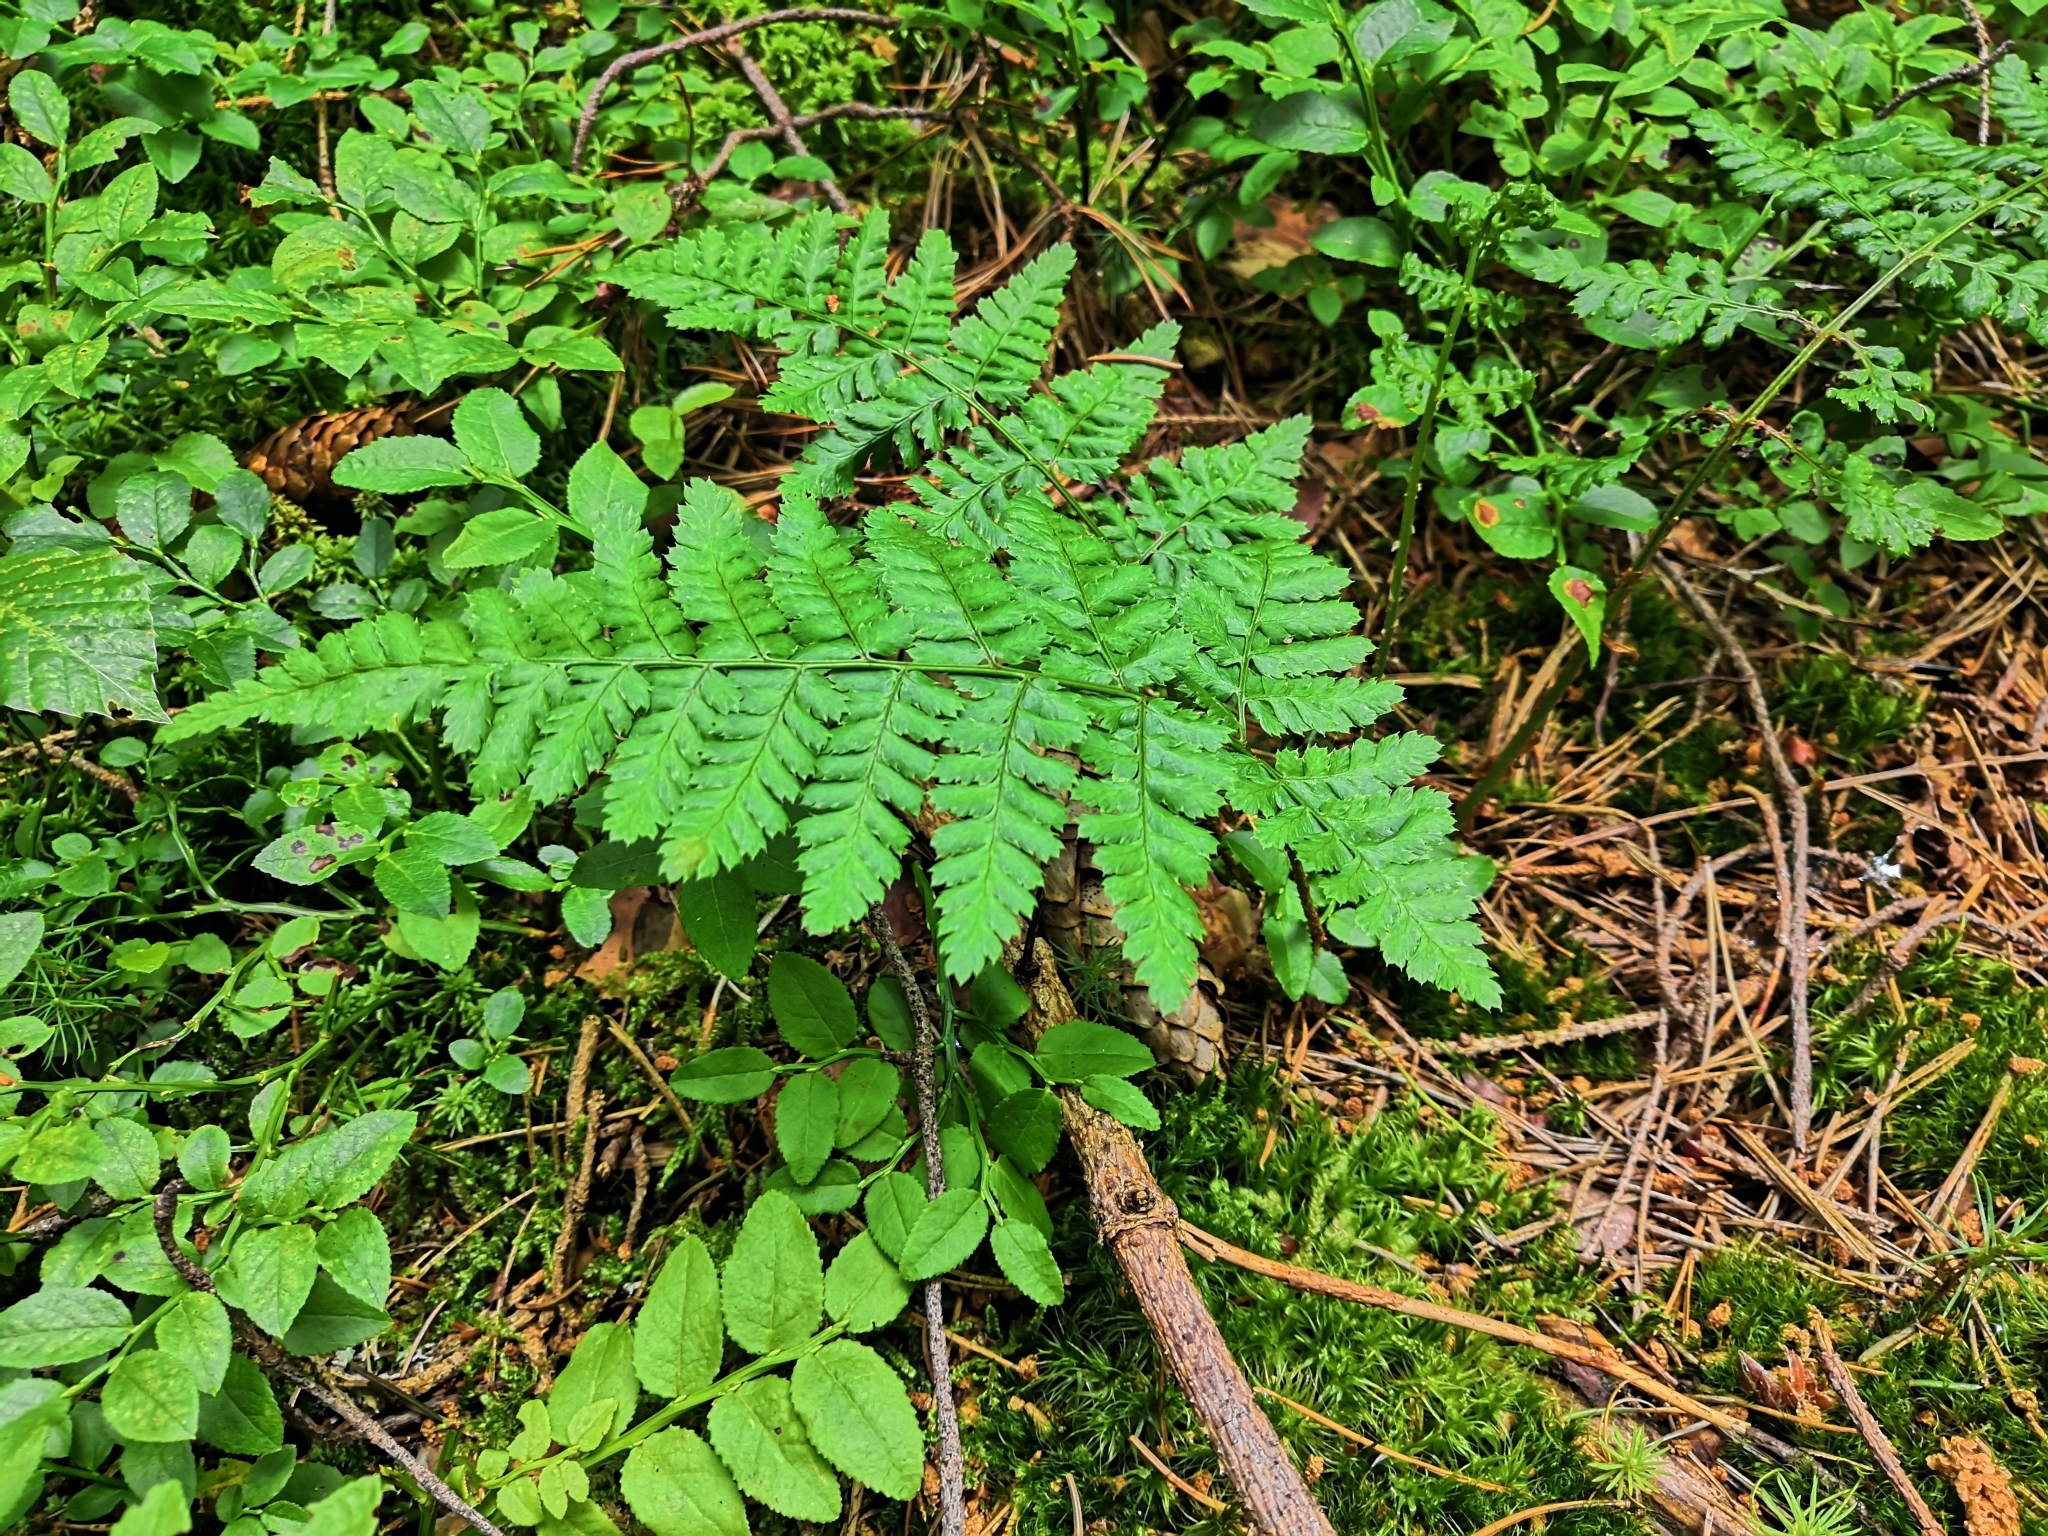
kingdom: Plantae
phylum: Tracheophyta
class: Polypodiopsida
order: Polypodiales
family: Dryopteridaceae
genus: Dryopteris
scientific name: Dryopteris dilatata
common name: Broad buckler-fern
